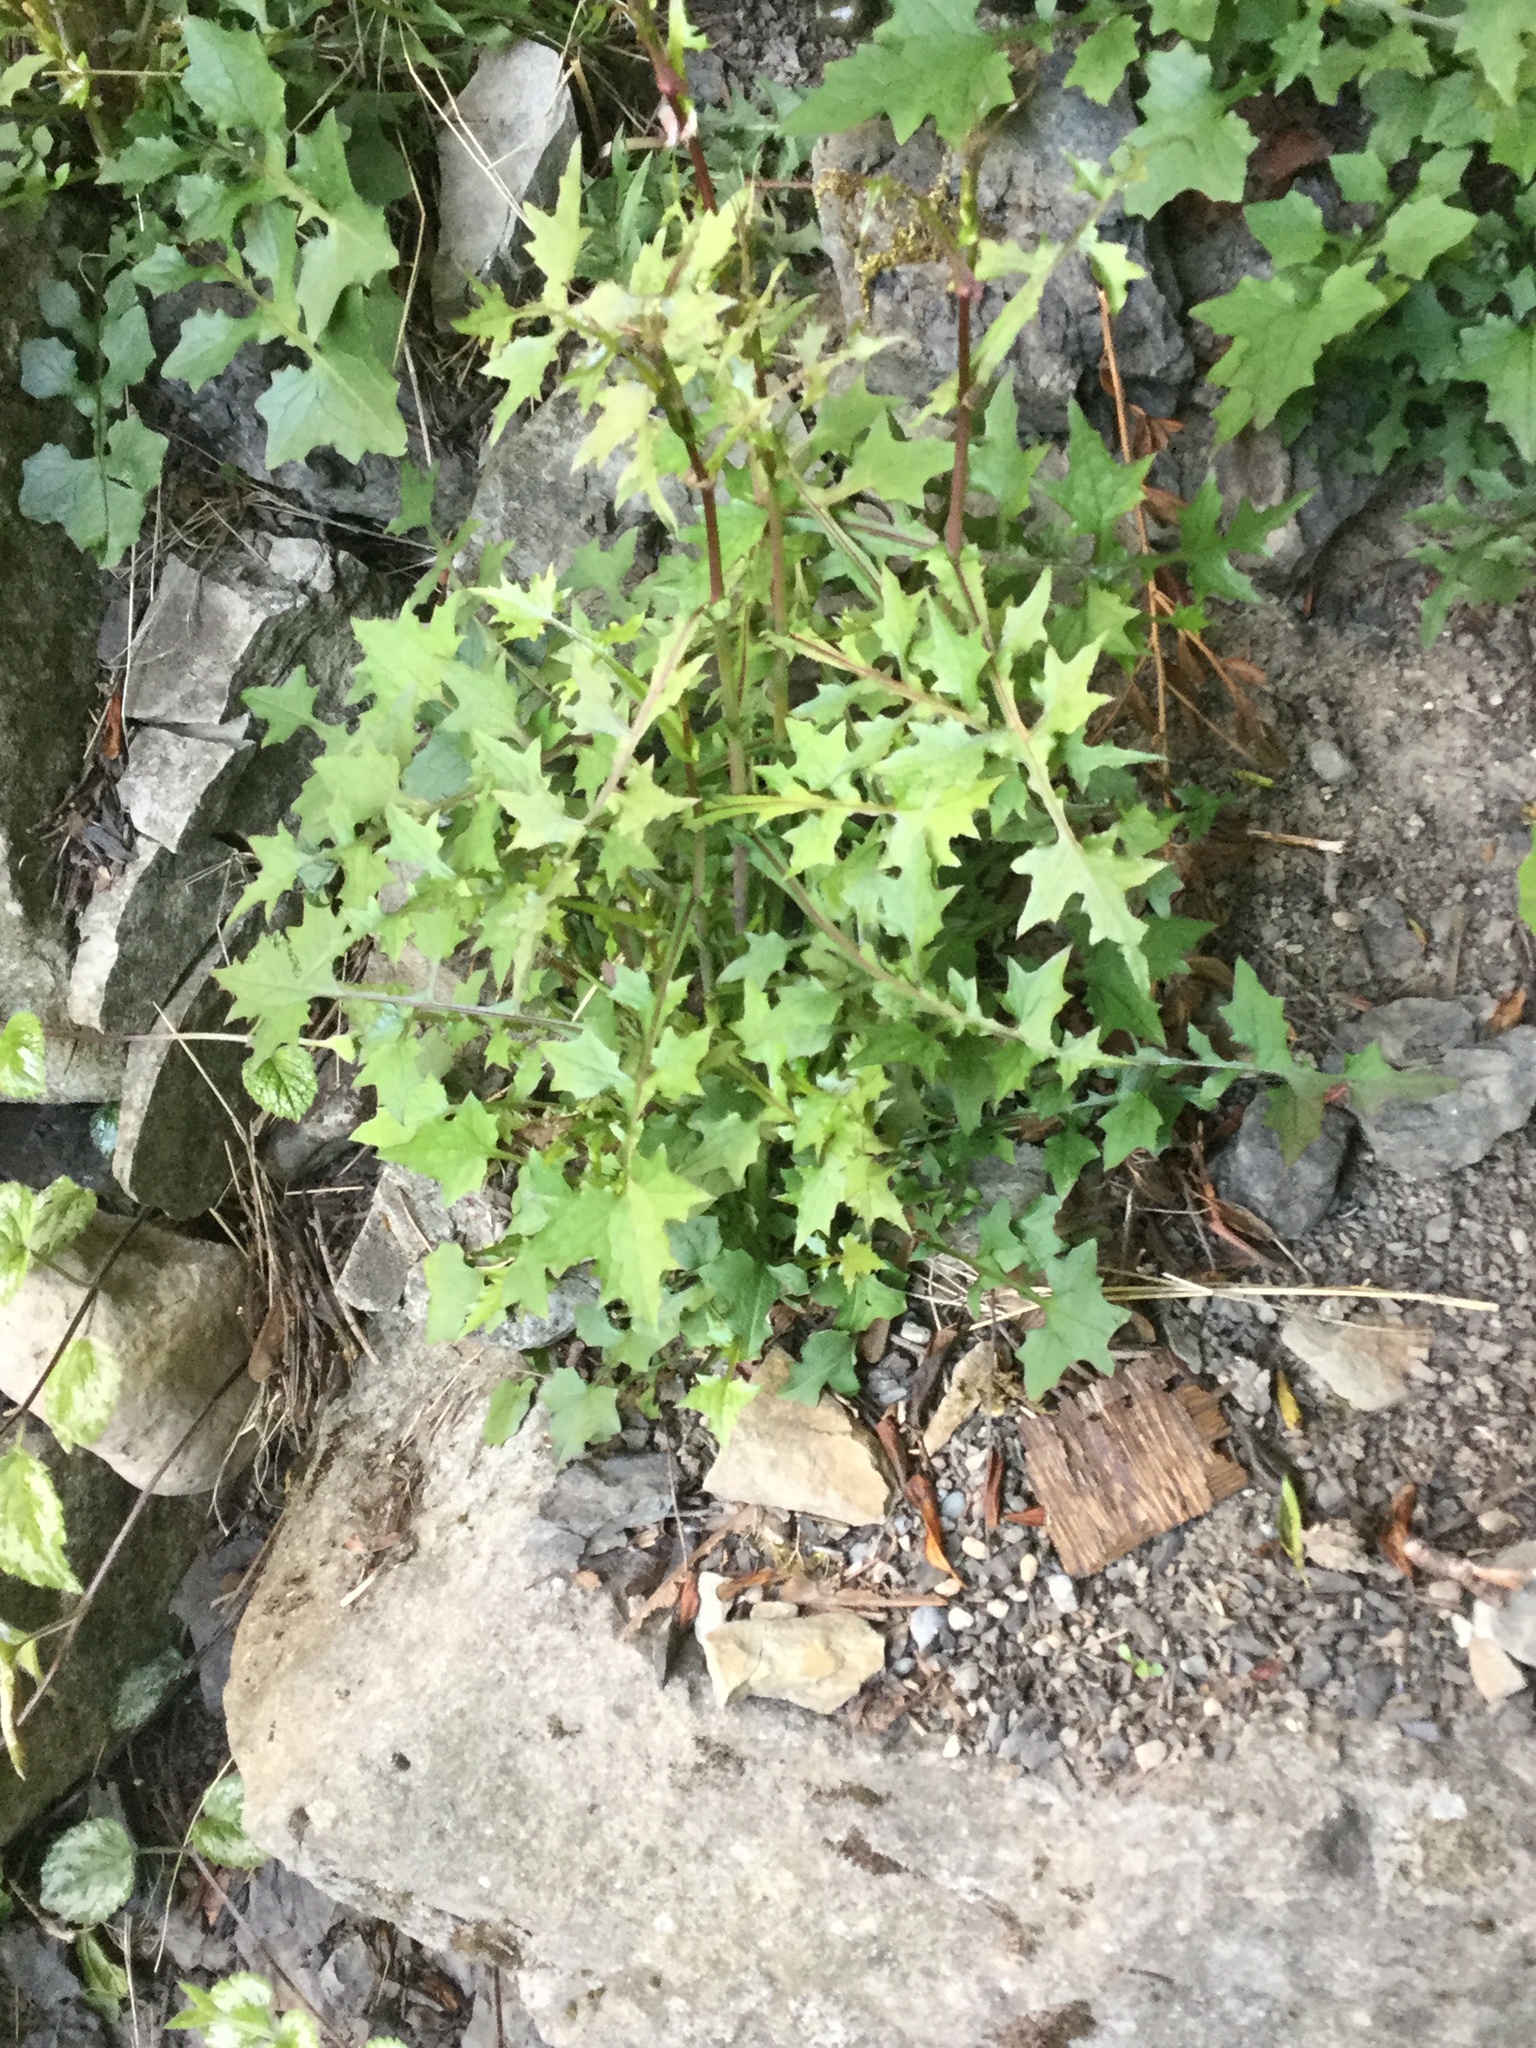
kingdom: Plantae
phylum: Tracheophyta
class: Magnoliopsida
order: Asterales
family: Asteraceae
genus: Mycelis
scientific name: Mycelis muralis
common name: Wall lettuce
